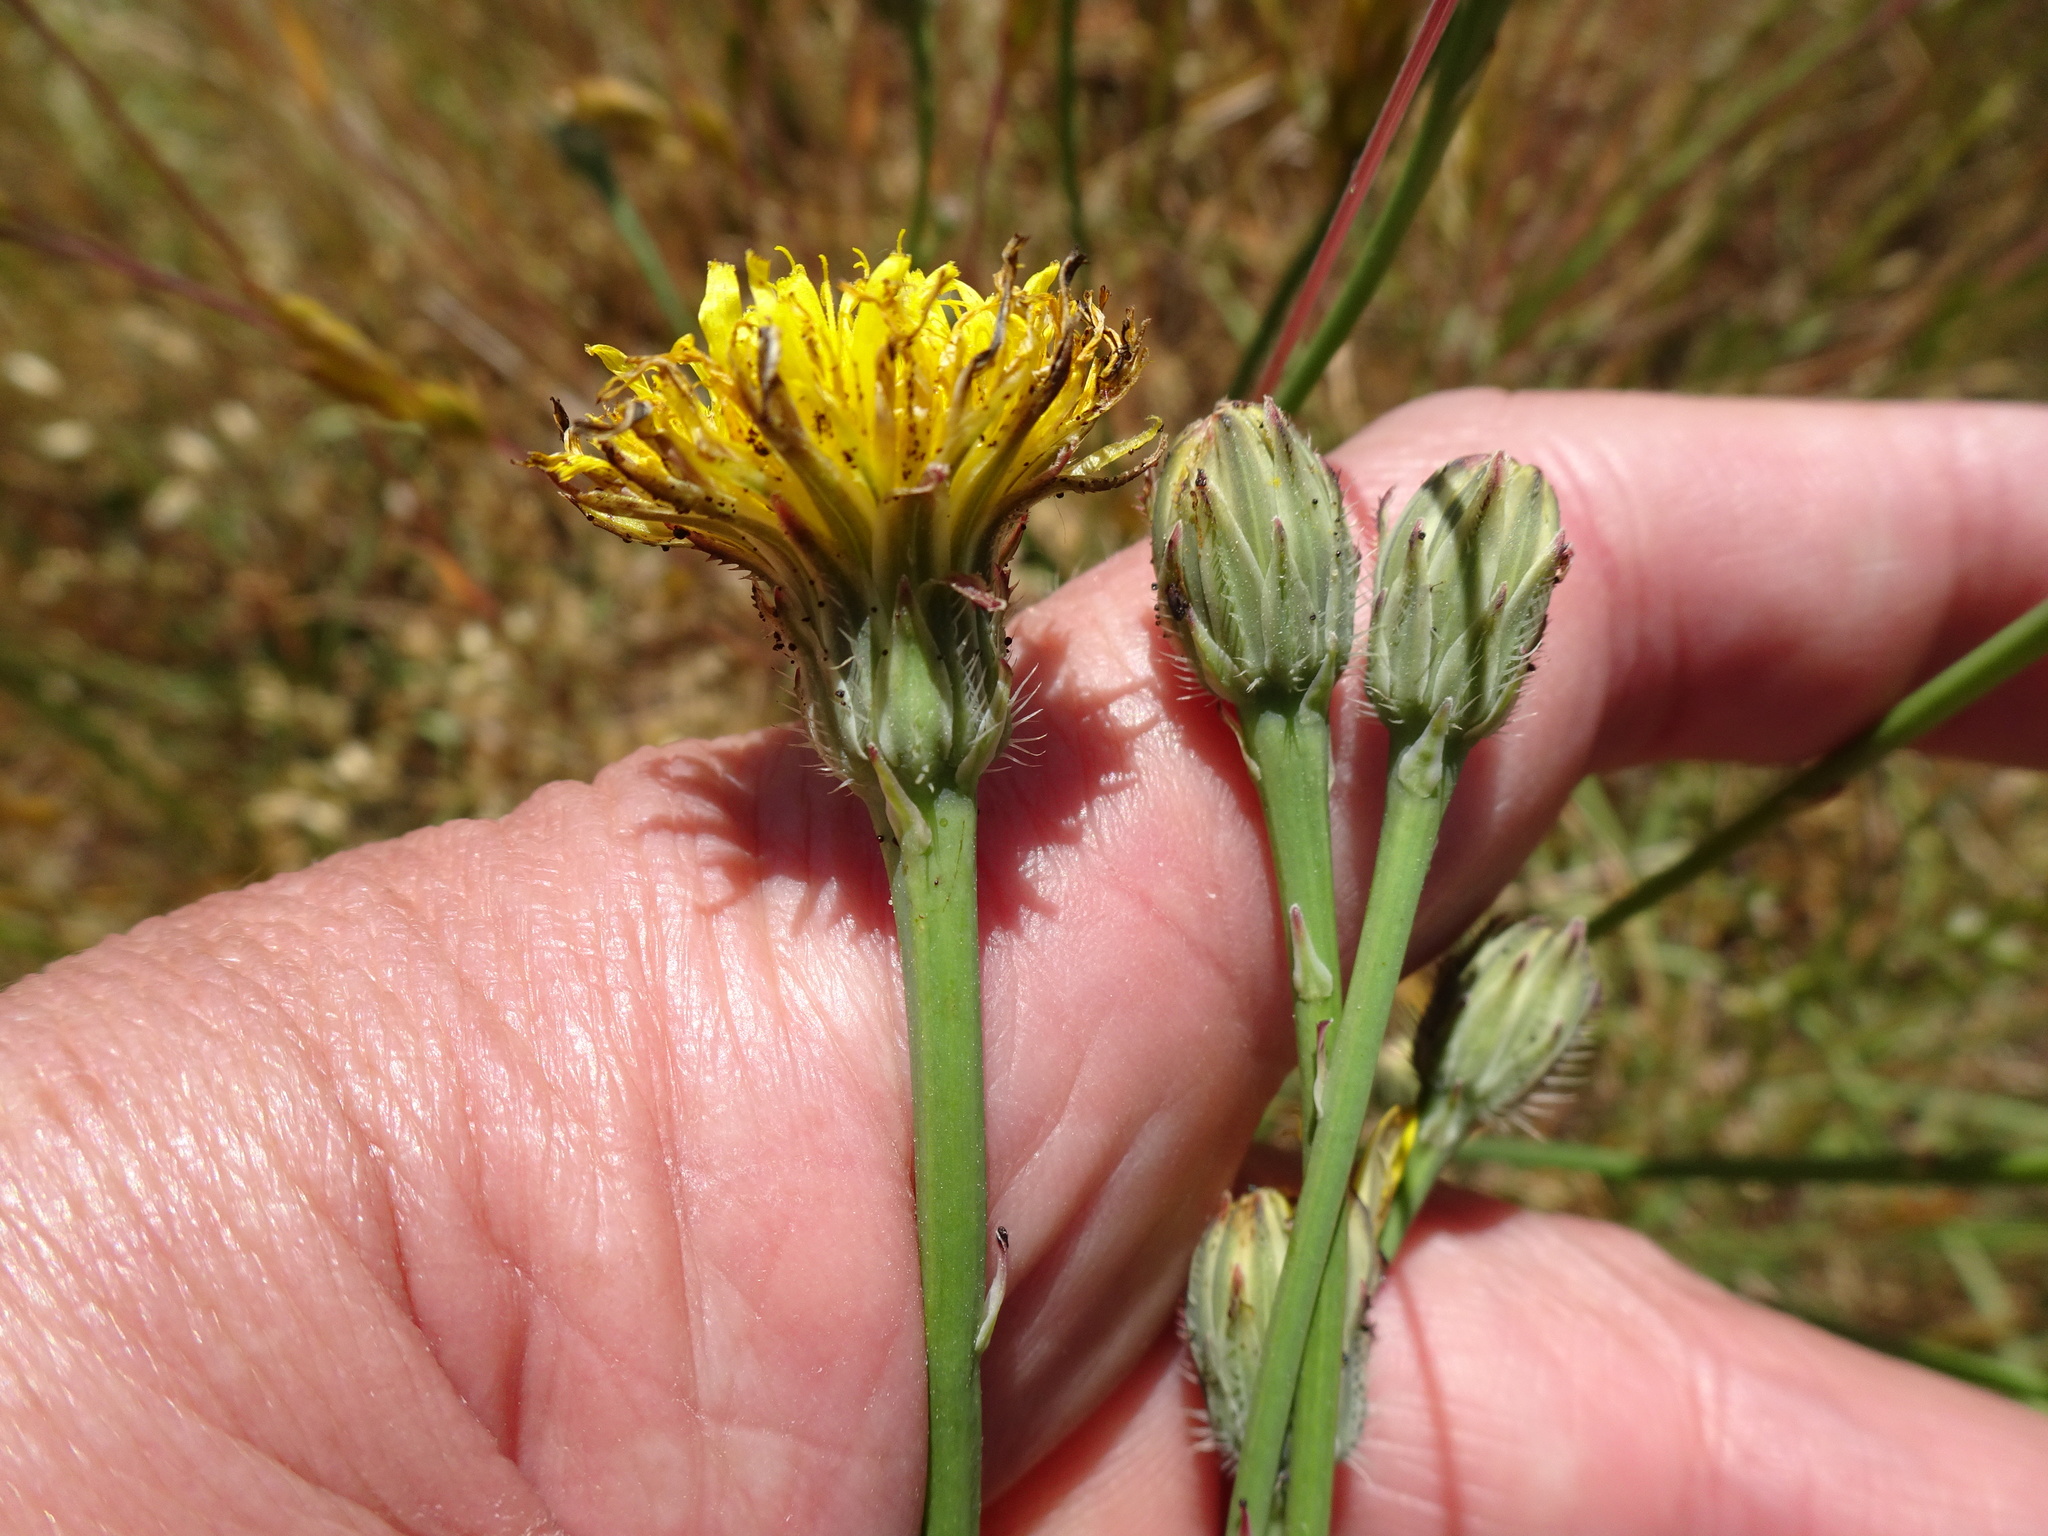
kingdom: Plantae
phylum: Tracheophyta
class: Magnoliopsida
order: Asterales
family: Asteraceae
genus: Hypochaeris
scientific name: Hypochaeris radicata
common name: Flatweed
